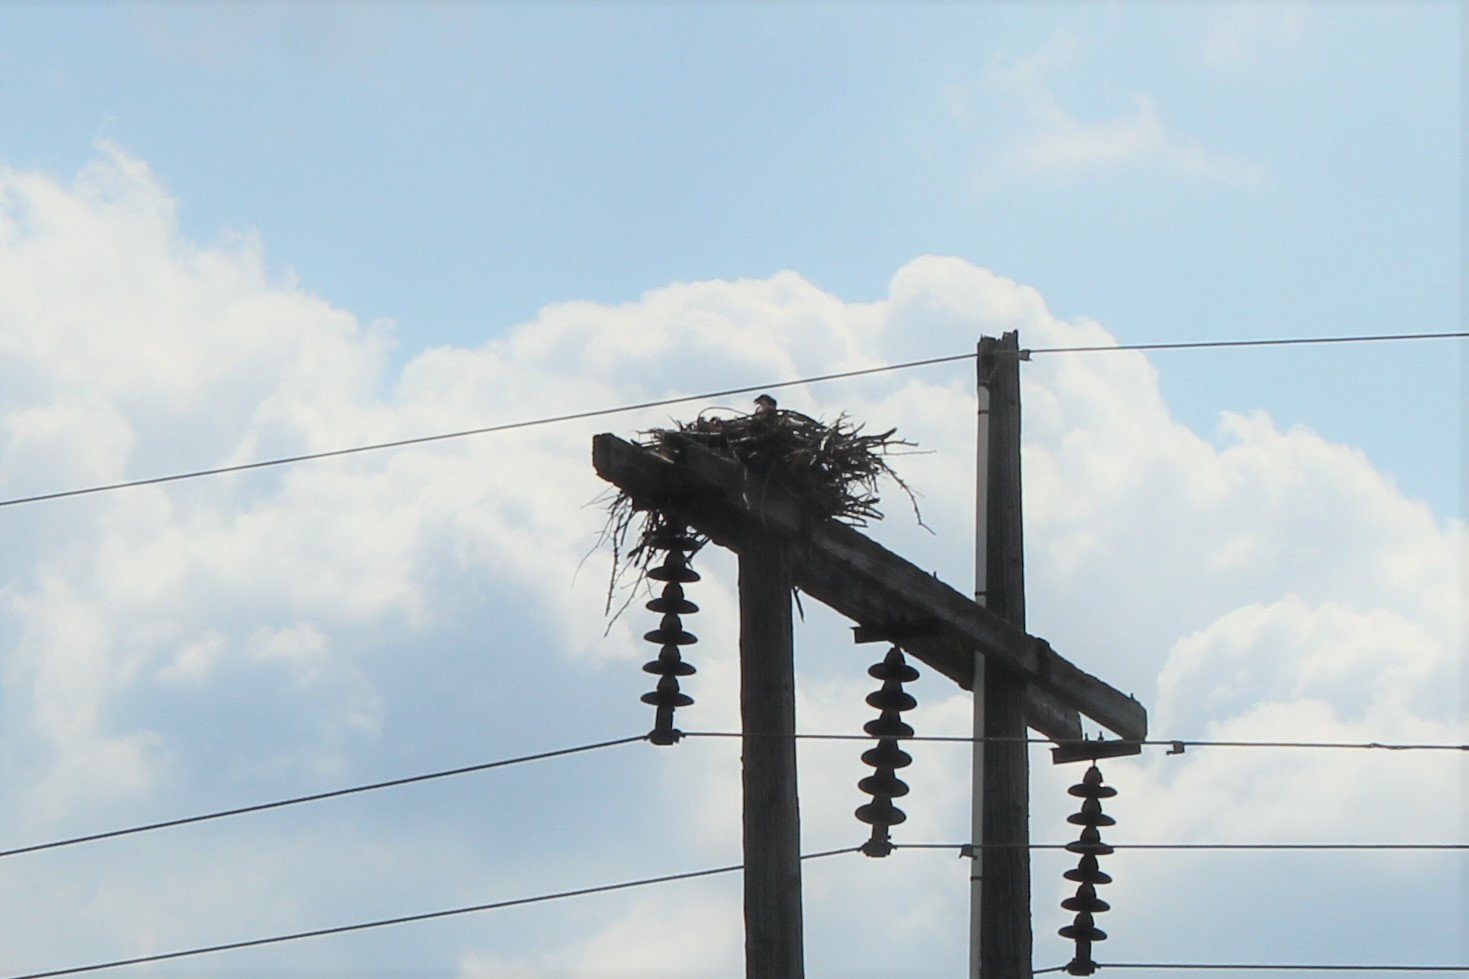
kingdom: Animalia
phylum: Chordata
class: Aves
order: Accipitriformes
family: Pandionidae
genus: Pandion
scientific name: Pandion haliaetus
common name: Osprey
